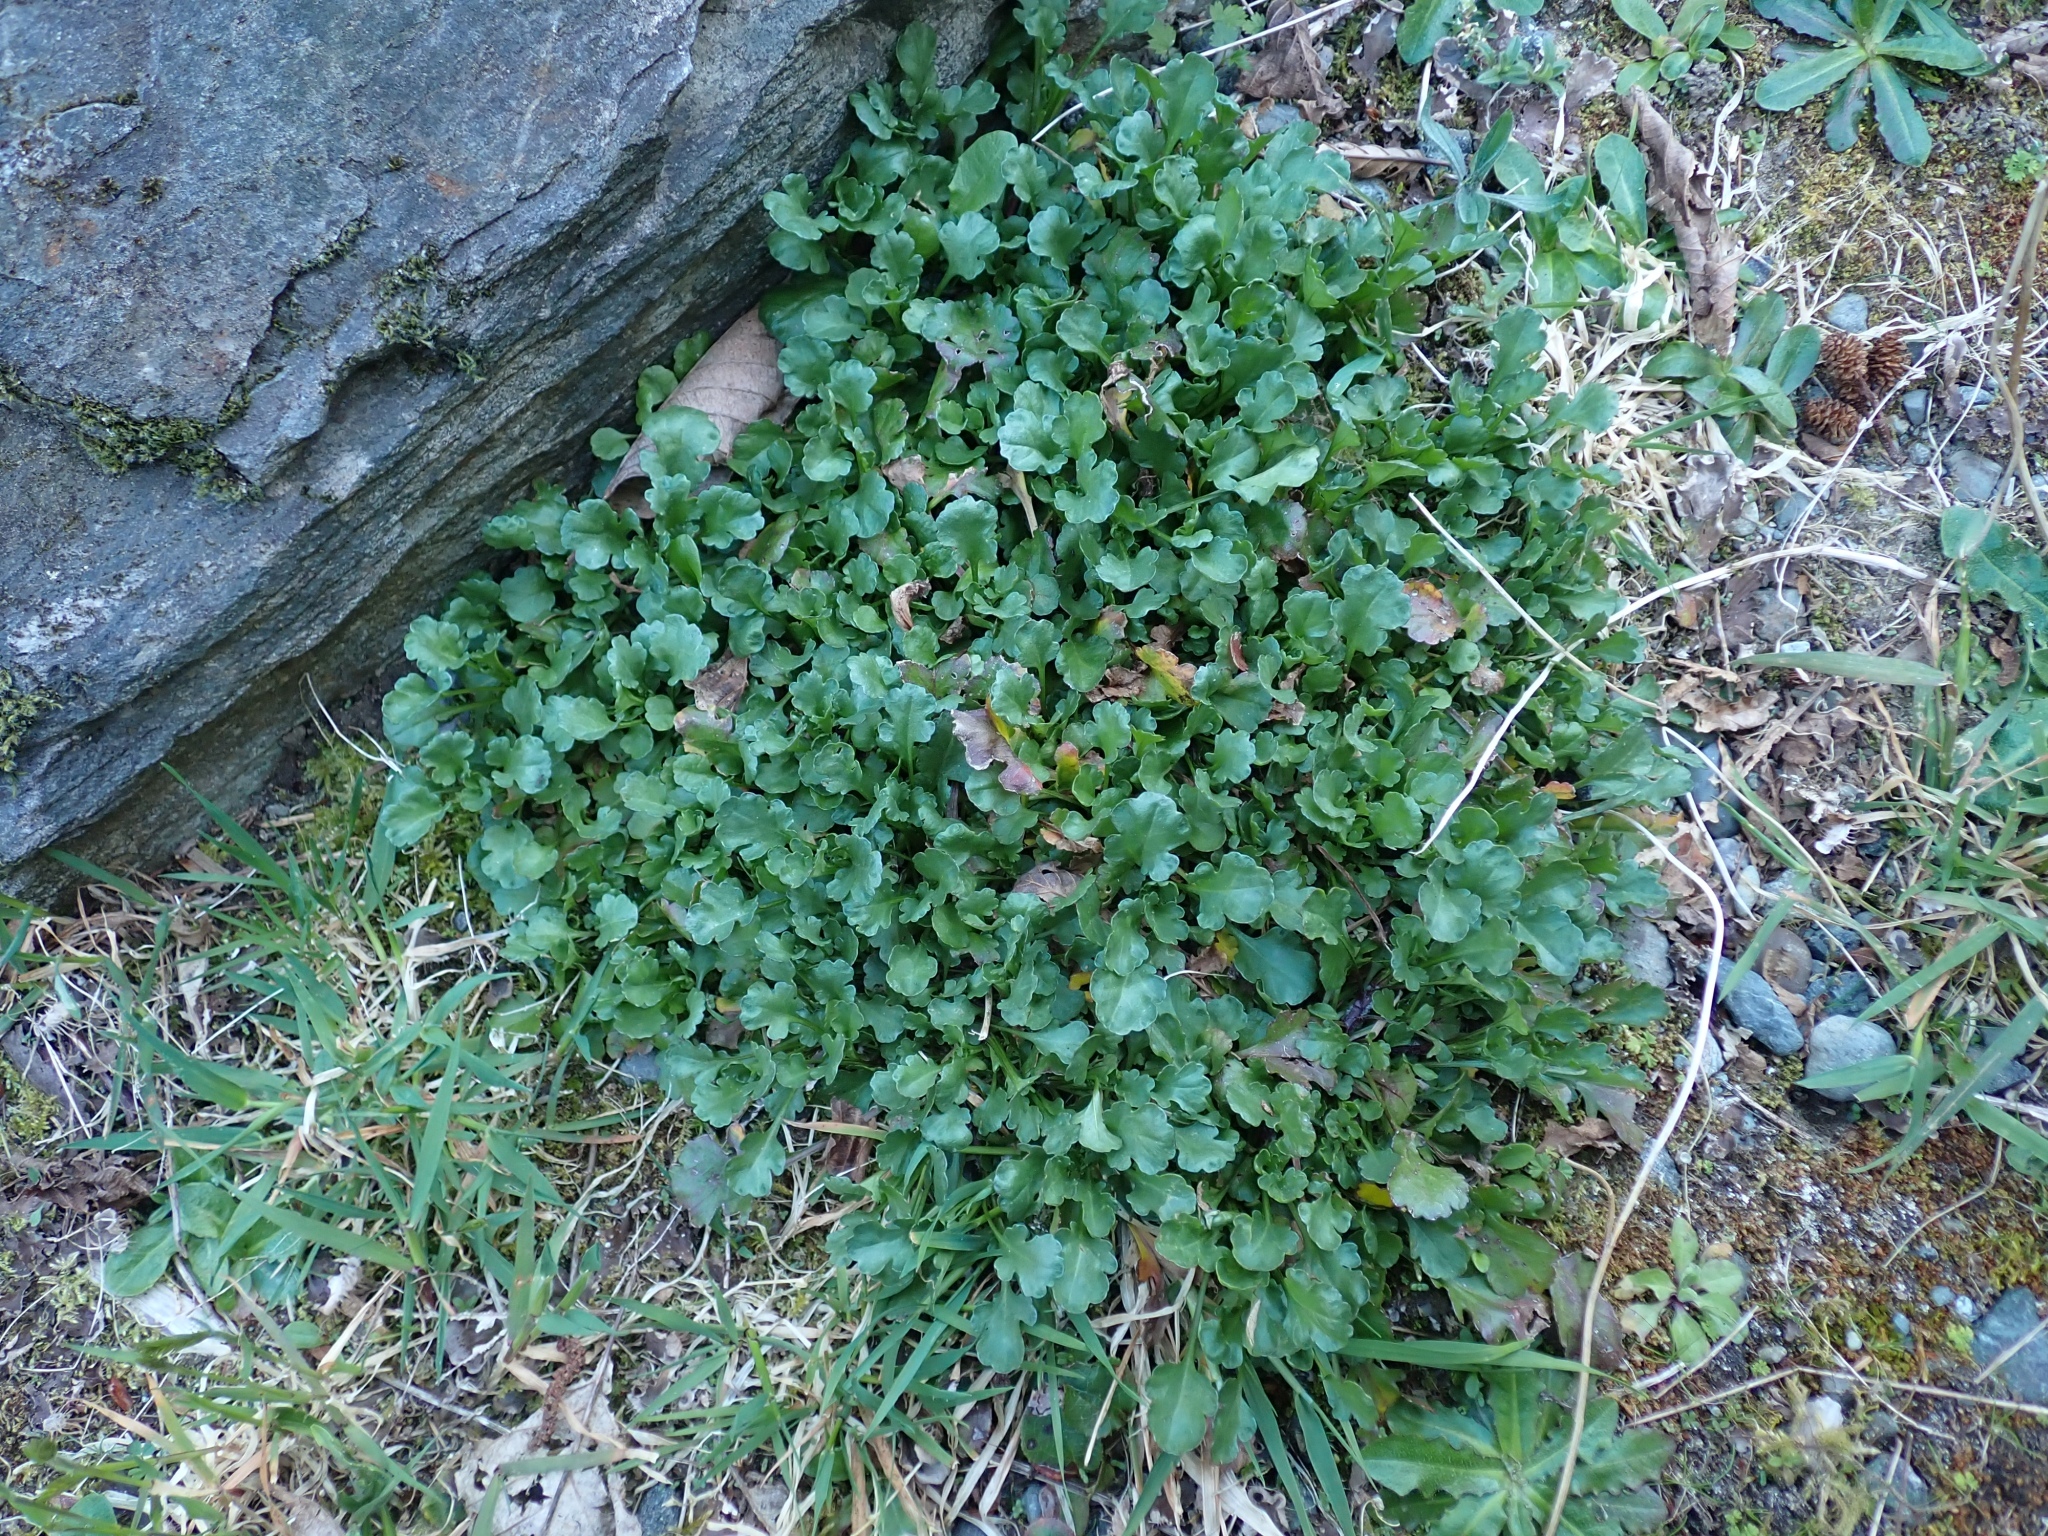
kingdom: Plantae
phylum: Tracheophyta
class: Magnoliopsida
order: Asterales
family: Asteraceae
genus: Leucanthemum
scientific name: Leucanthemum vulgare
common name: Oxeye daisy
